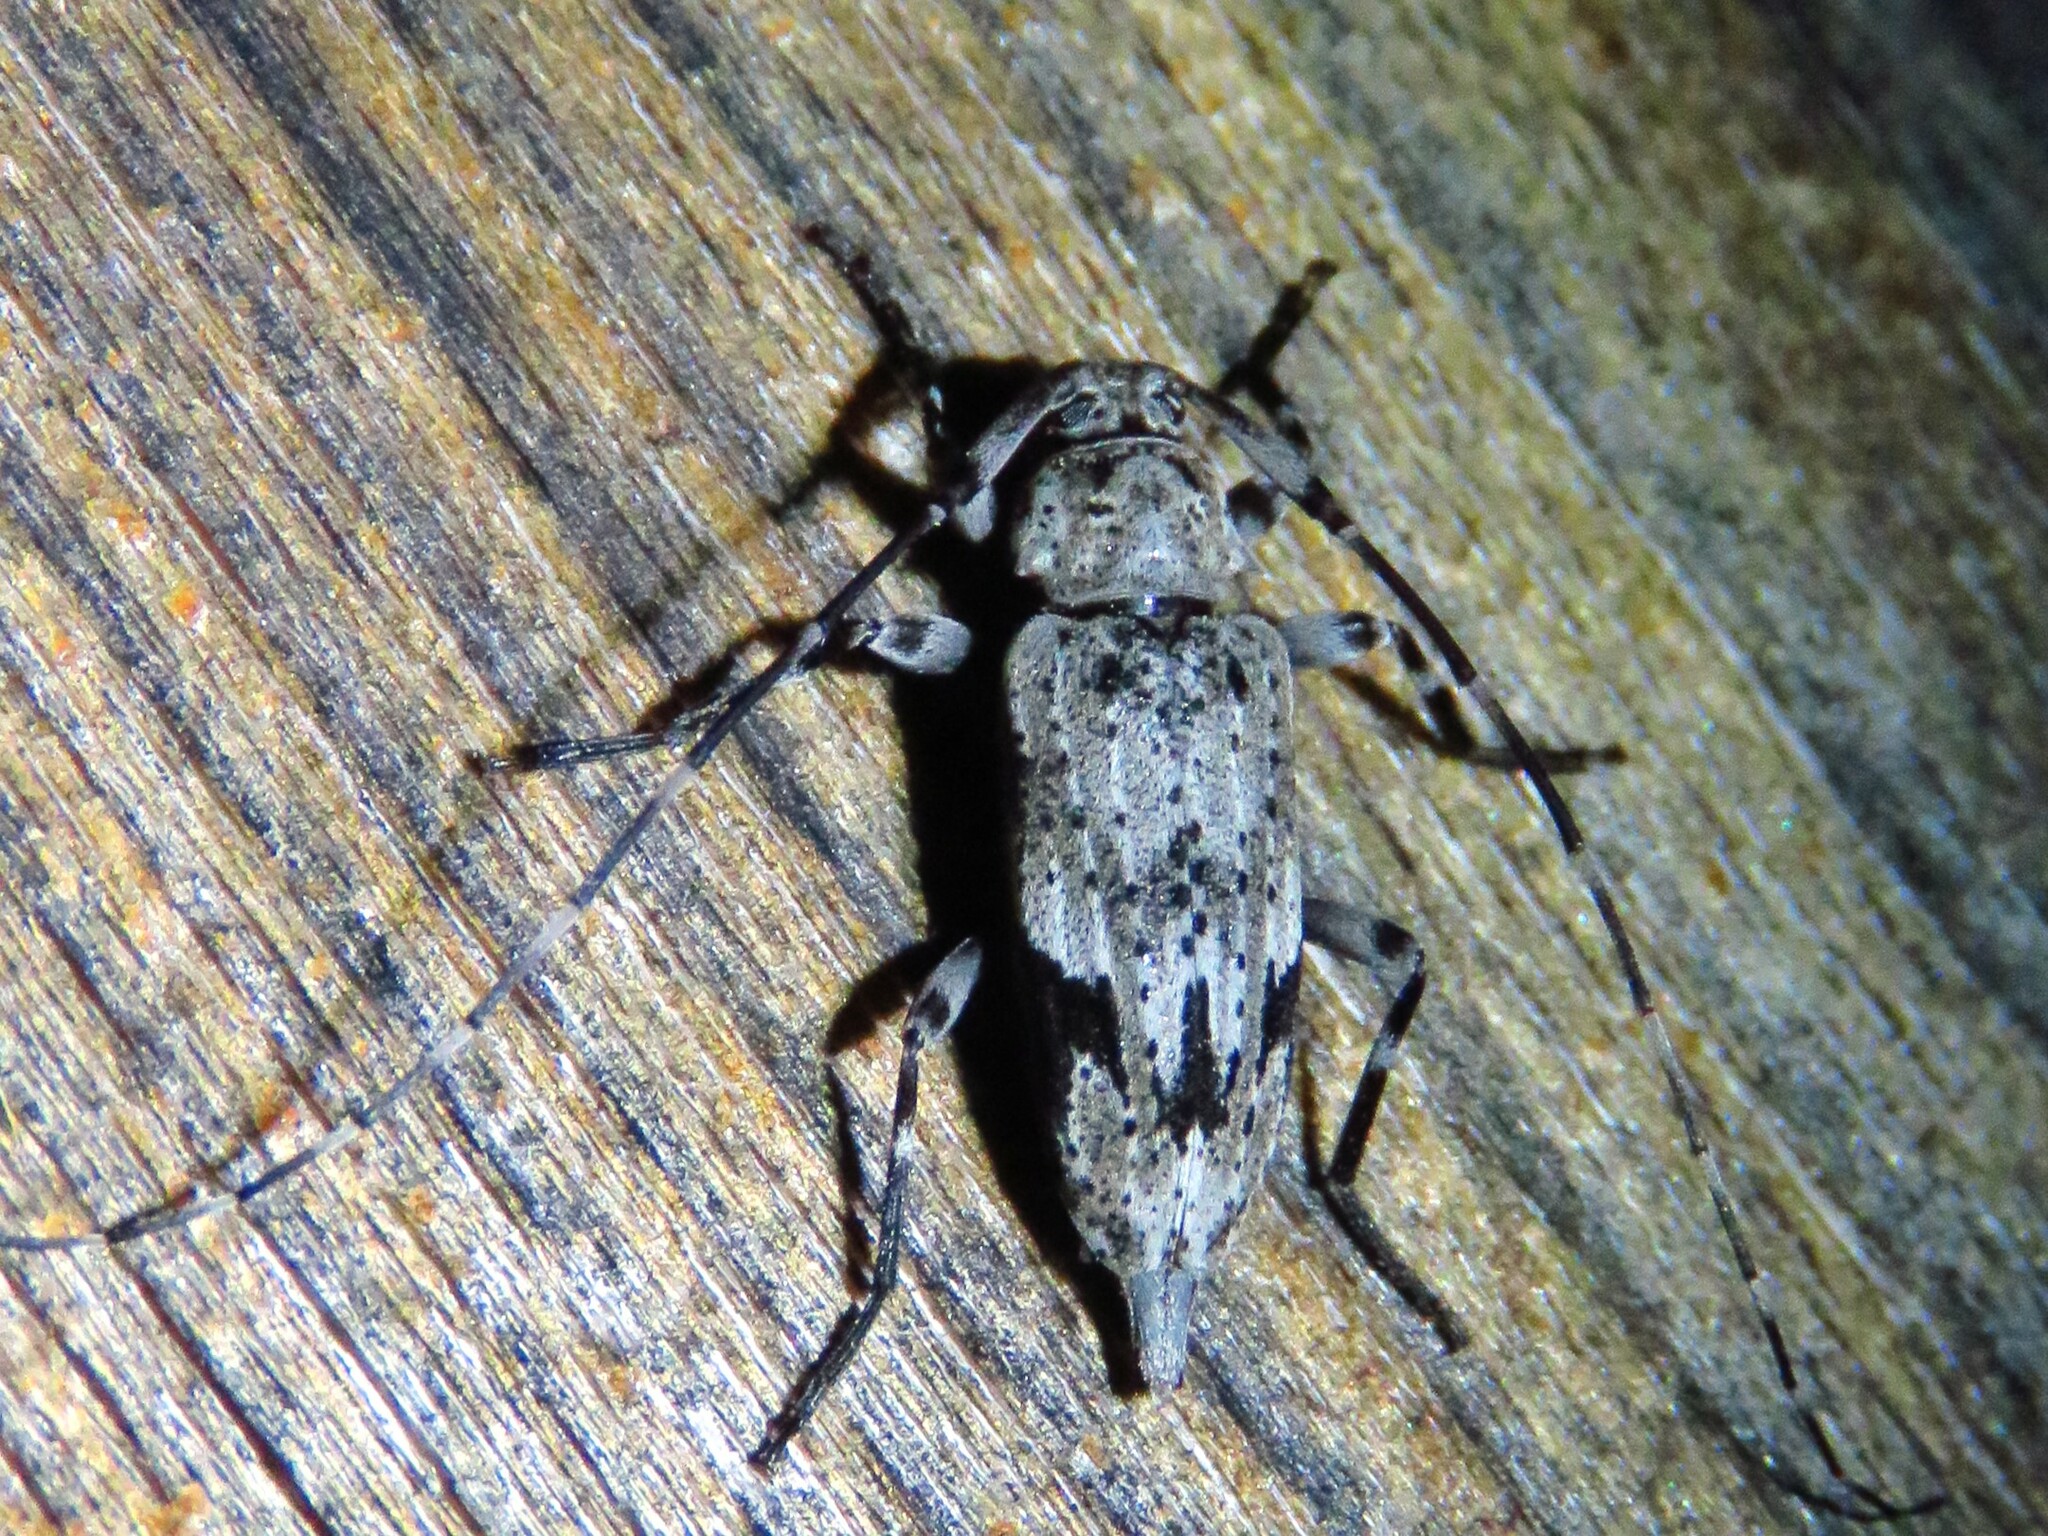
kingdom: Animalia
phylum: Arthropoda
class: Insecta
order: Coleoptera
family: Cerambycidae
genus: Eutrichillus
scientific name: Eutrichillus neomexicanus
